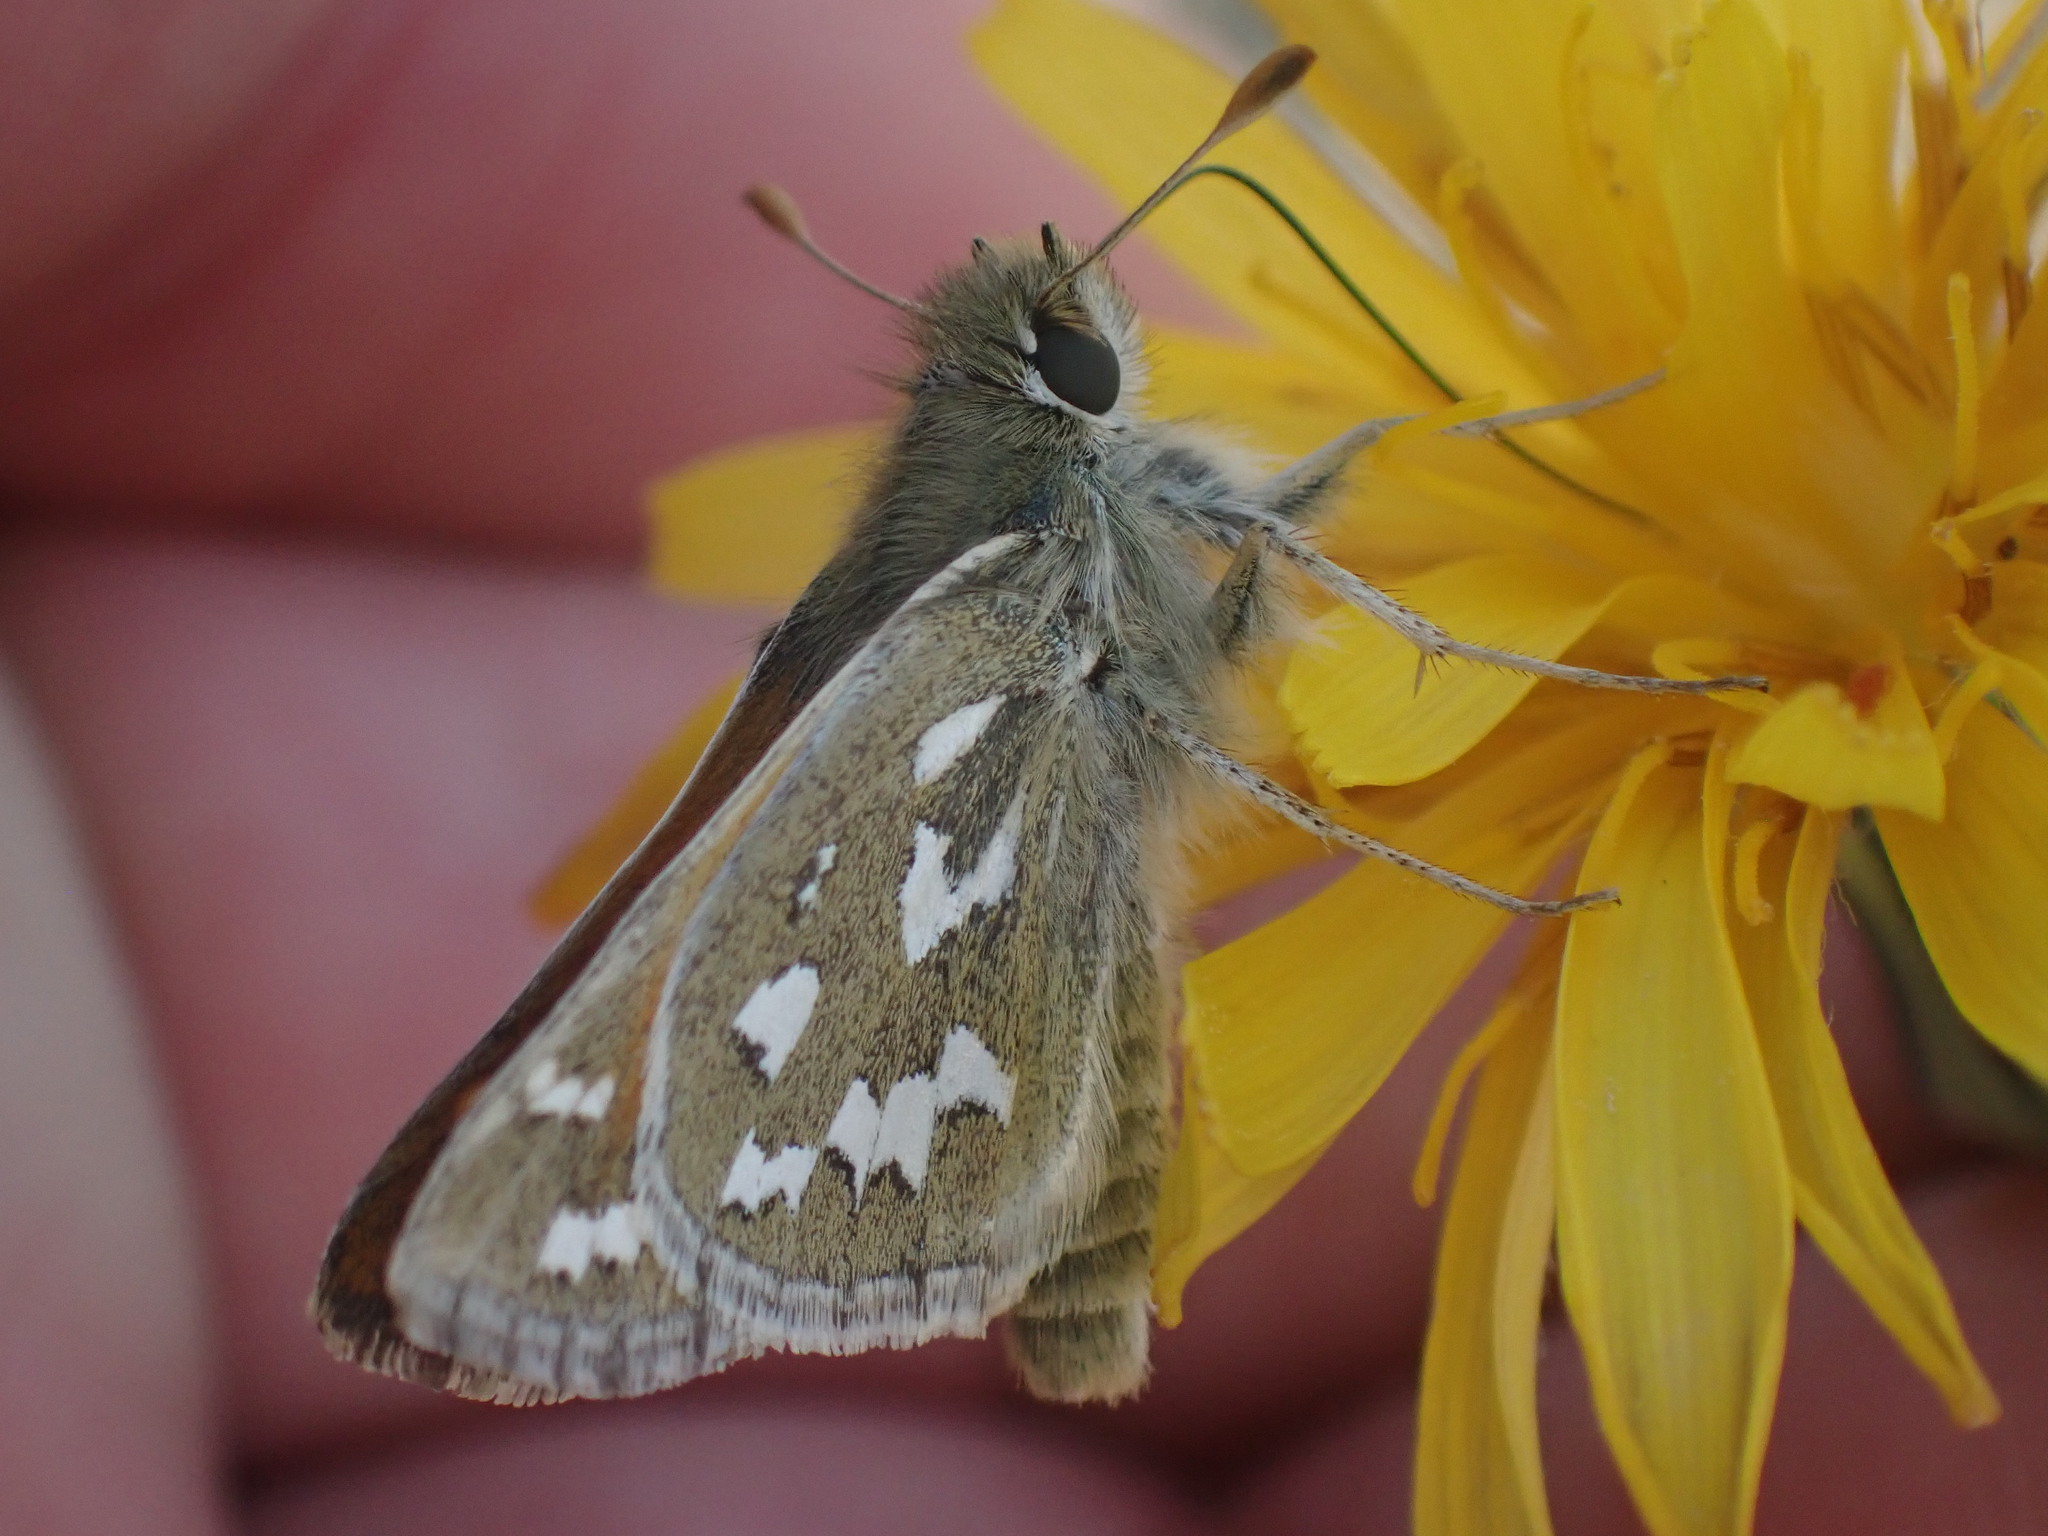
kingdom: Animalia
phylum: Arthropoda
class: Insecta
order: Lepidoptera
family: Hesperiidae
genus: Hesperia
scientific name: Hesperia nevada
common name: Nevada skipper
